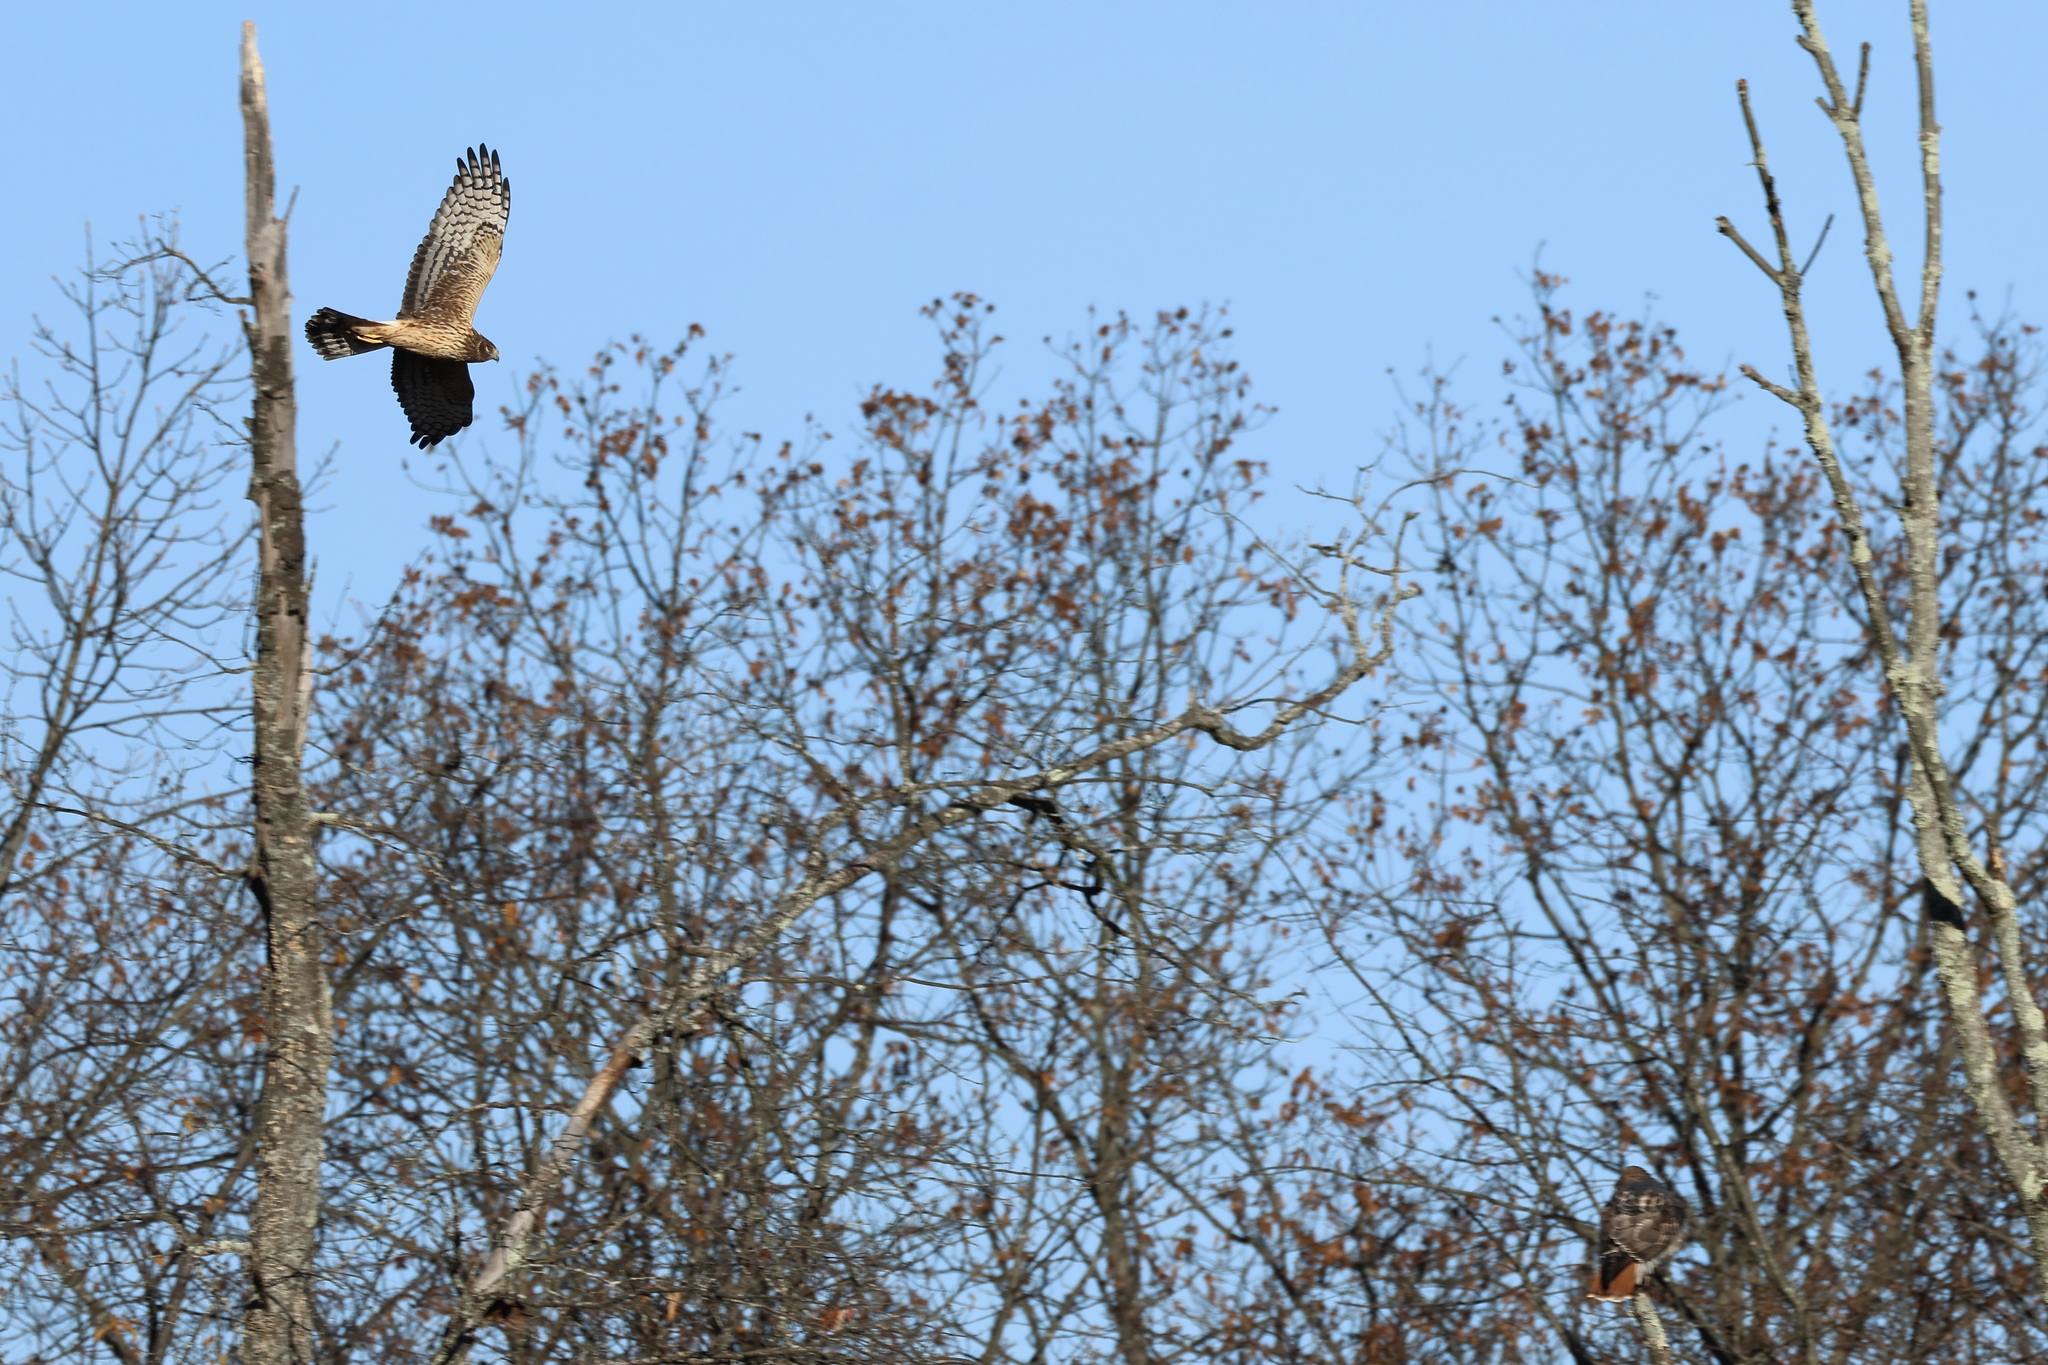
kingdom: Animalia
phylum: Chordata
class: Aves
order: Accipitriformes
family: Accipitridae
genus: Circus
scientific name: Circus cyaneus
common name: Hen harrier
